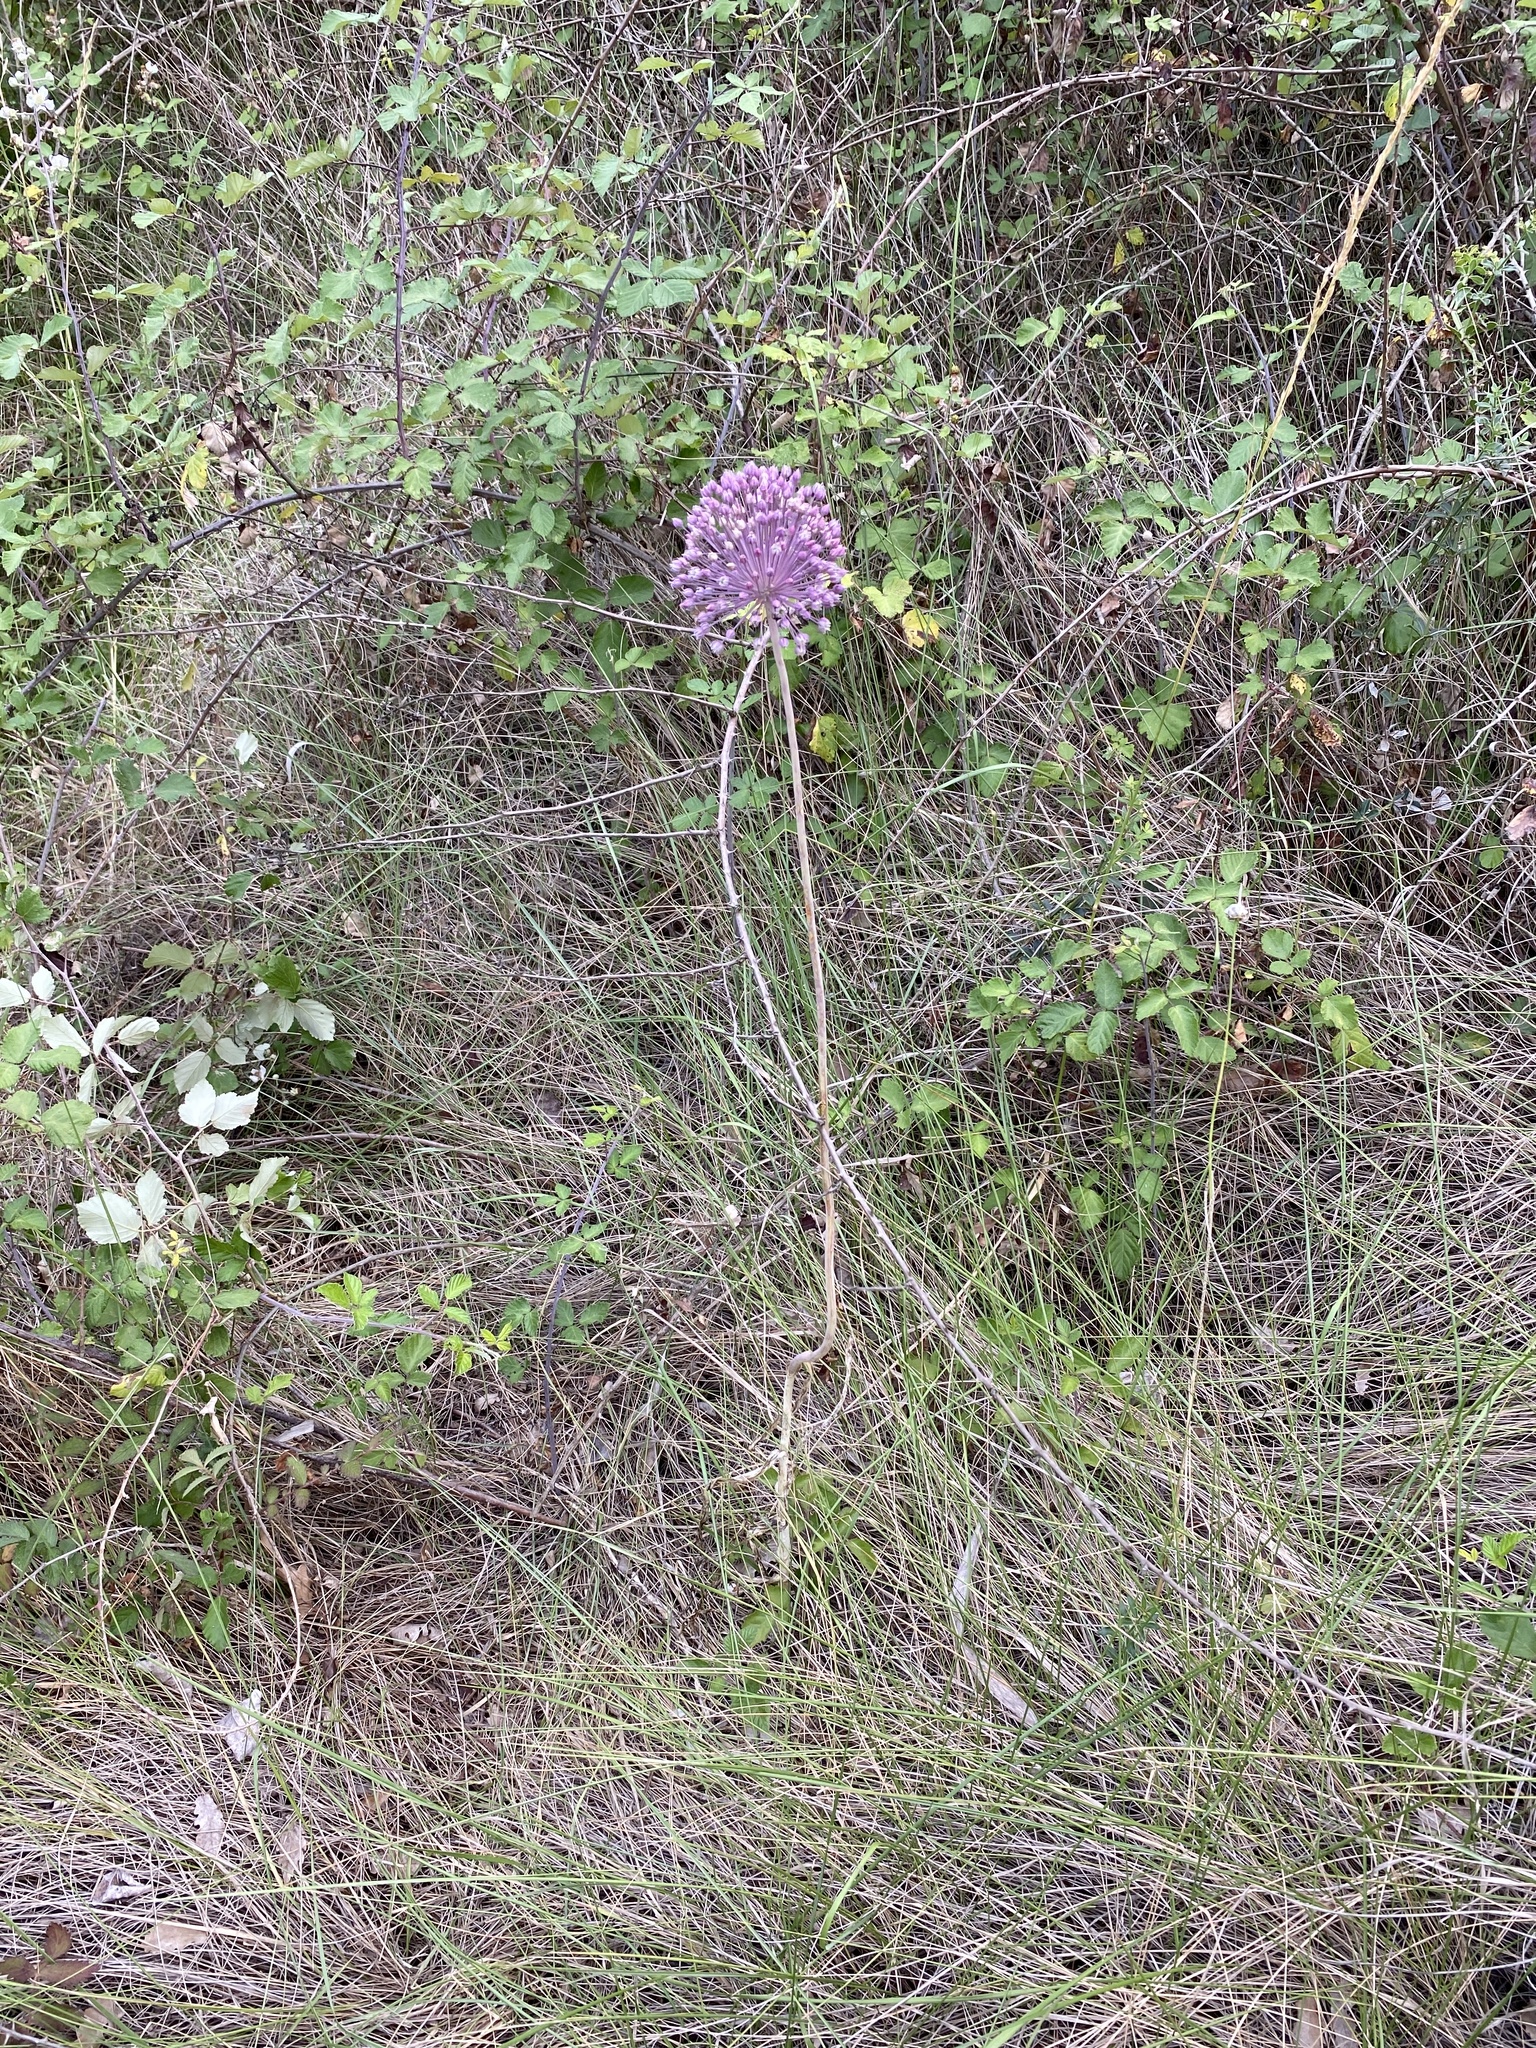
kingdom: Plantae
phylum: Tracheophyta
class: Liliopsida
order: Asparagales
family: Amaryllidaceae
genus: Allium
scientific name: Allium ampeloprasum
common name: Wild leek
